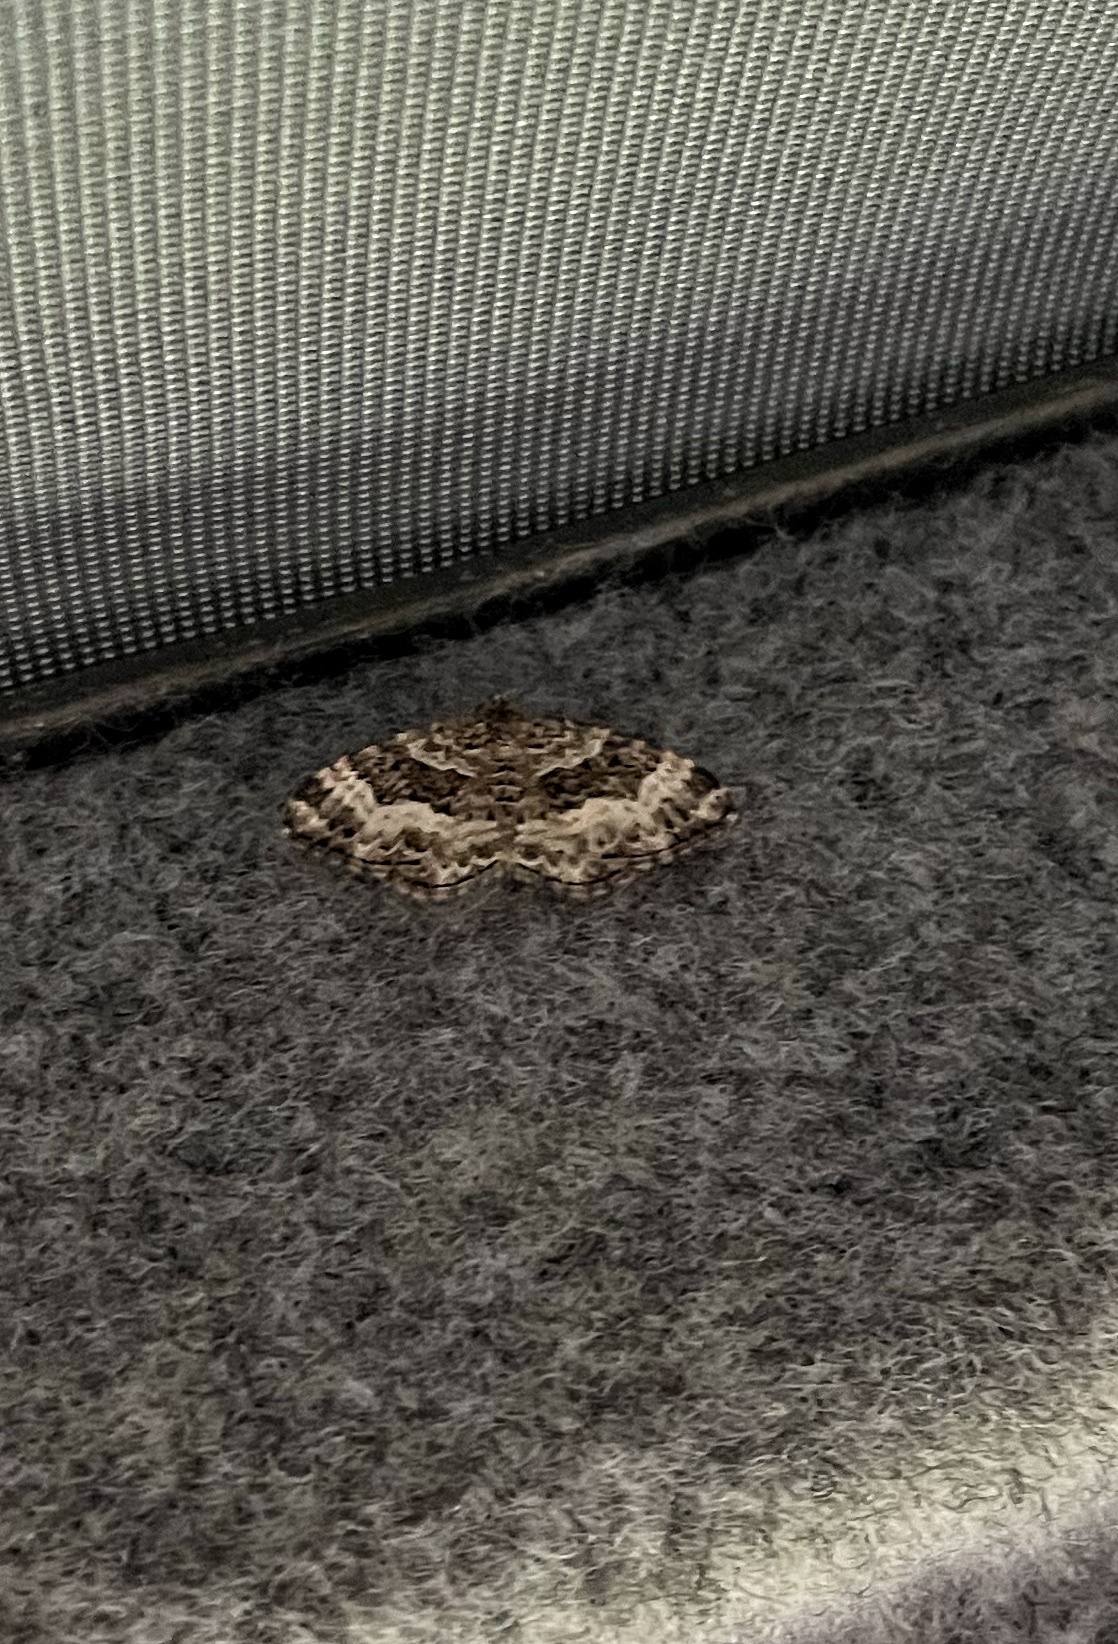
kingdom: Animalia
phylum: Arthropoda
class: Insecta
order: Lepidoptera
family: Geometridae
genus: Epirrhoe
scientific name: Epirrhoe alternata
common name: Common carpet
